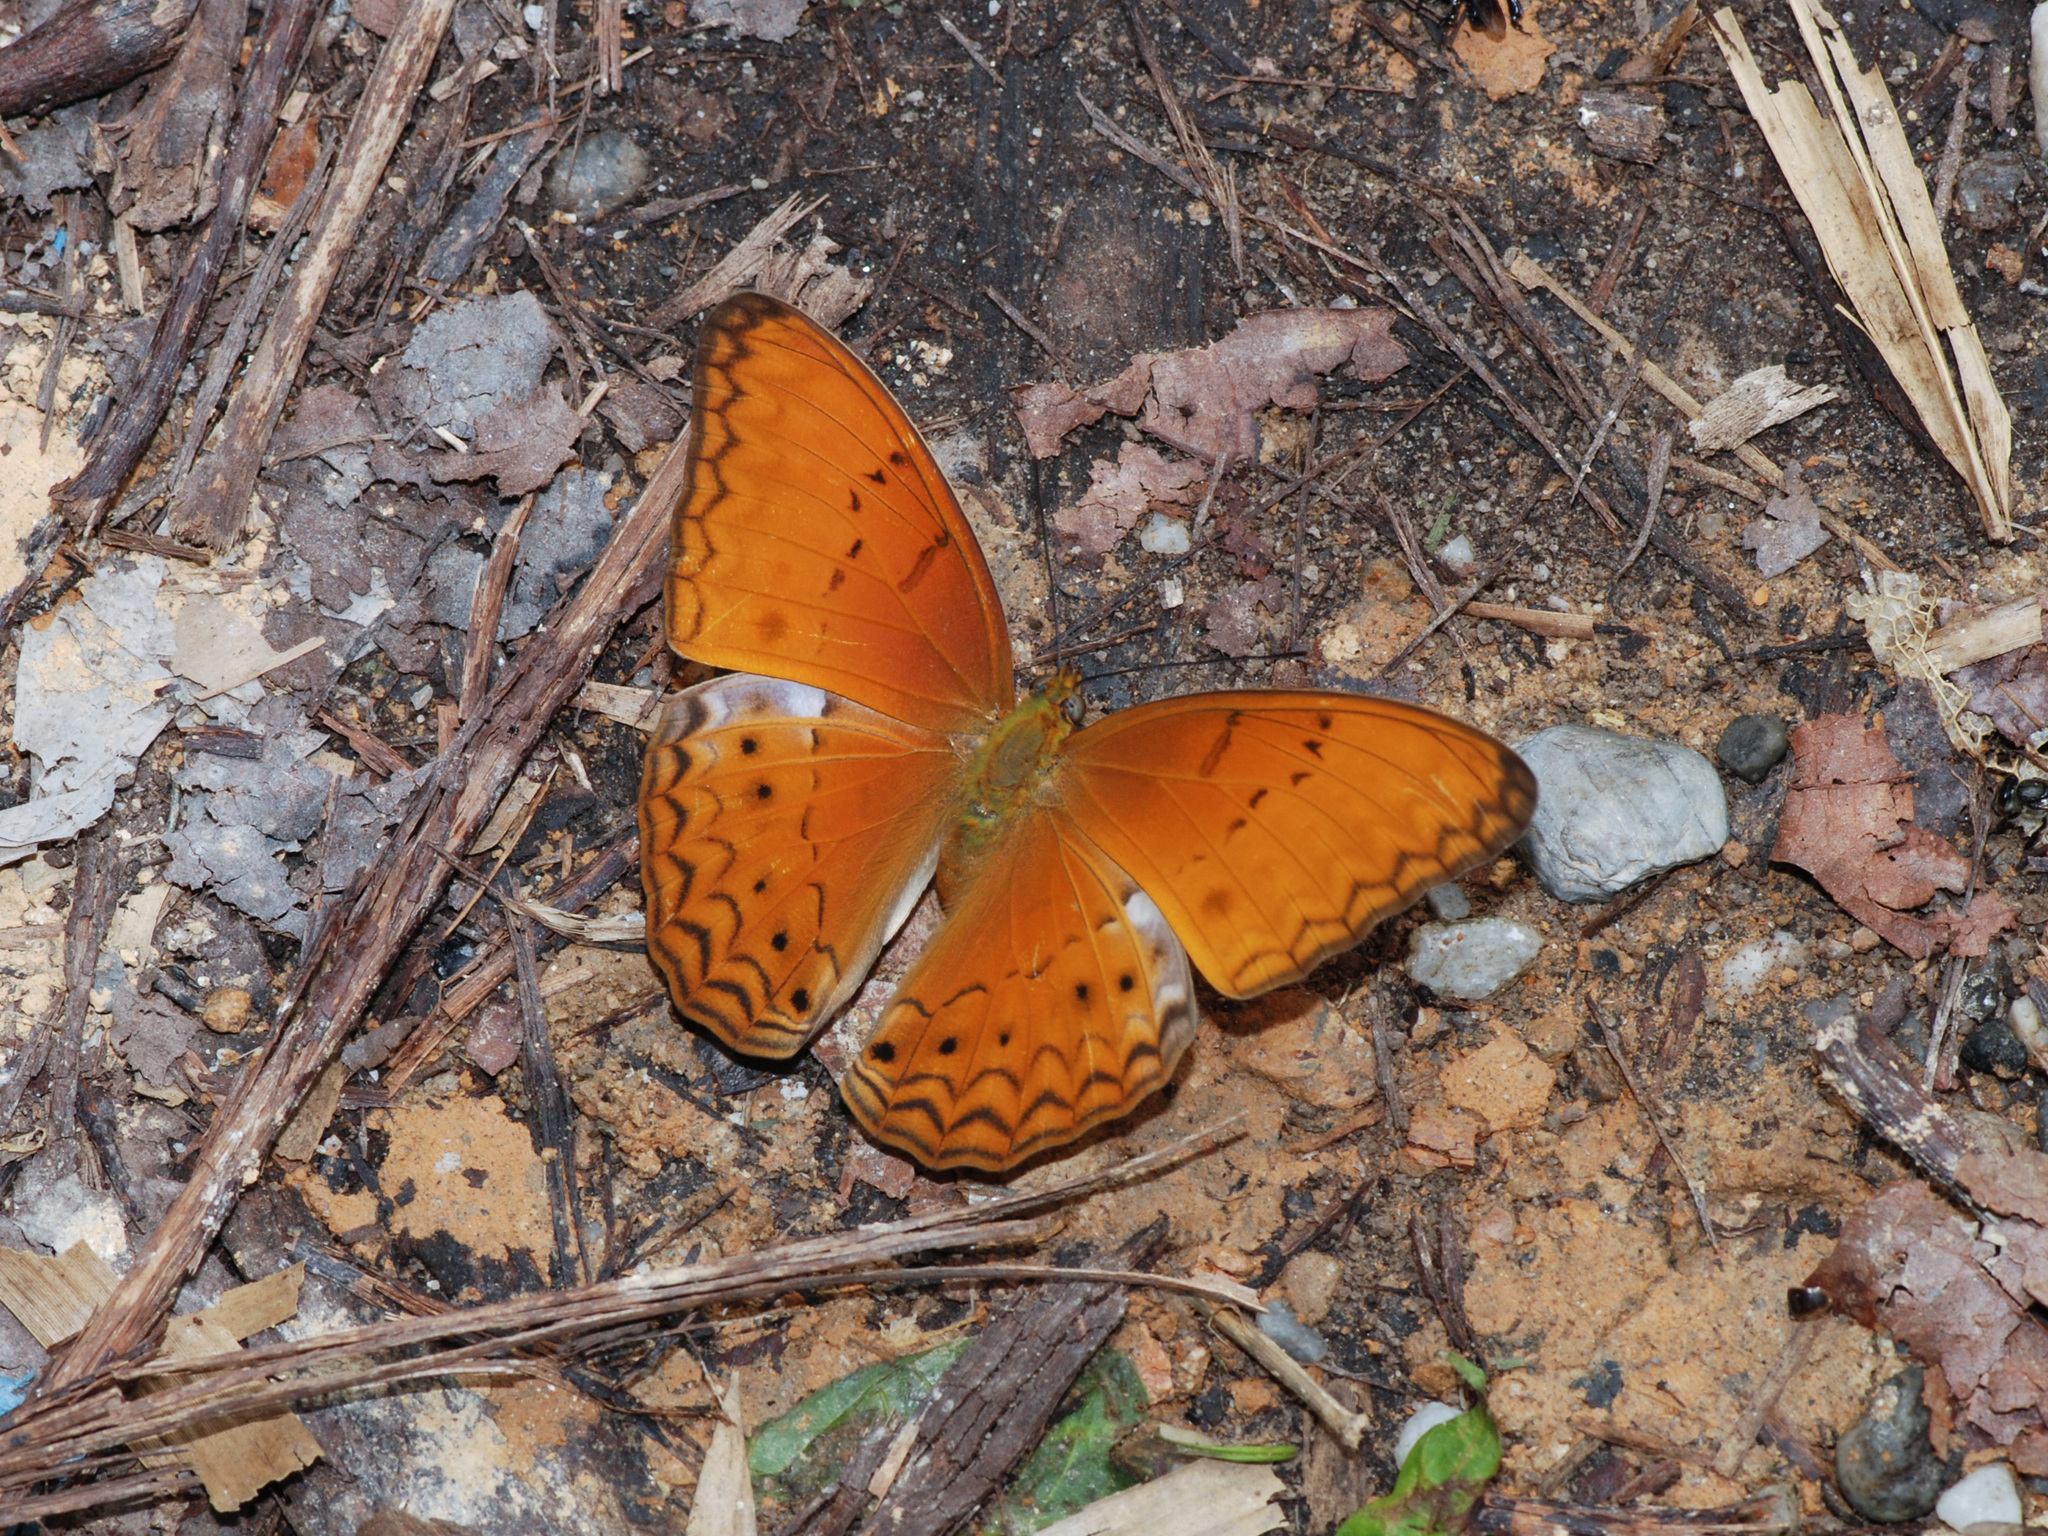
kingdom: Animalia
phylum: Arthropoda
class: Insecta
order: Lepidoptera
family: Nymphalidae
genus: Cirrochroa
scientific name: Cirrochroa tyche
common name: Common yeoman
